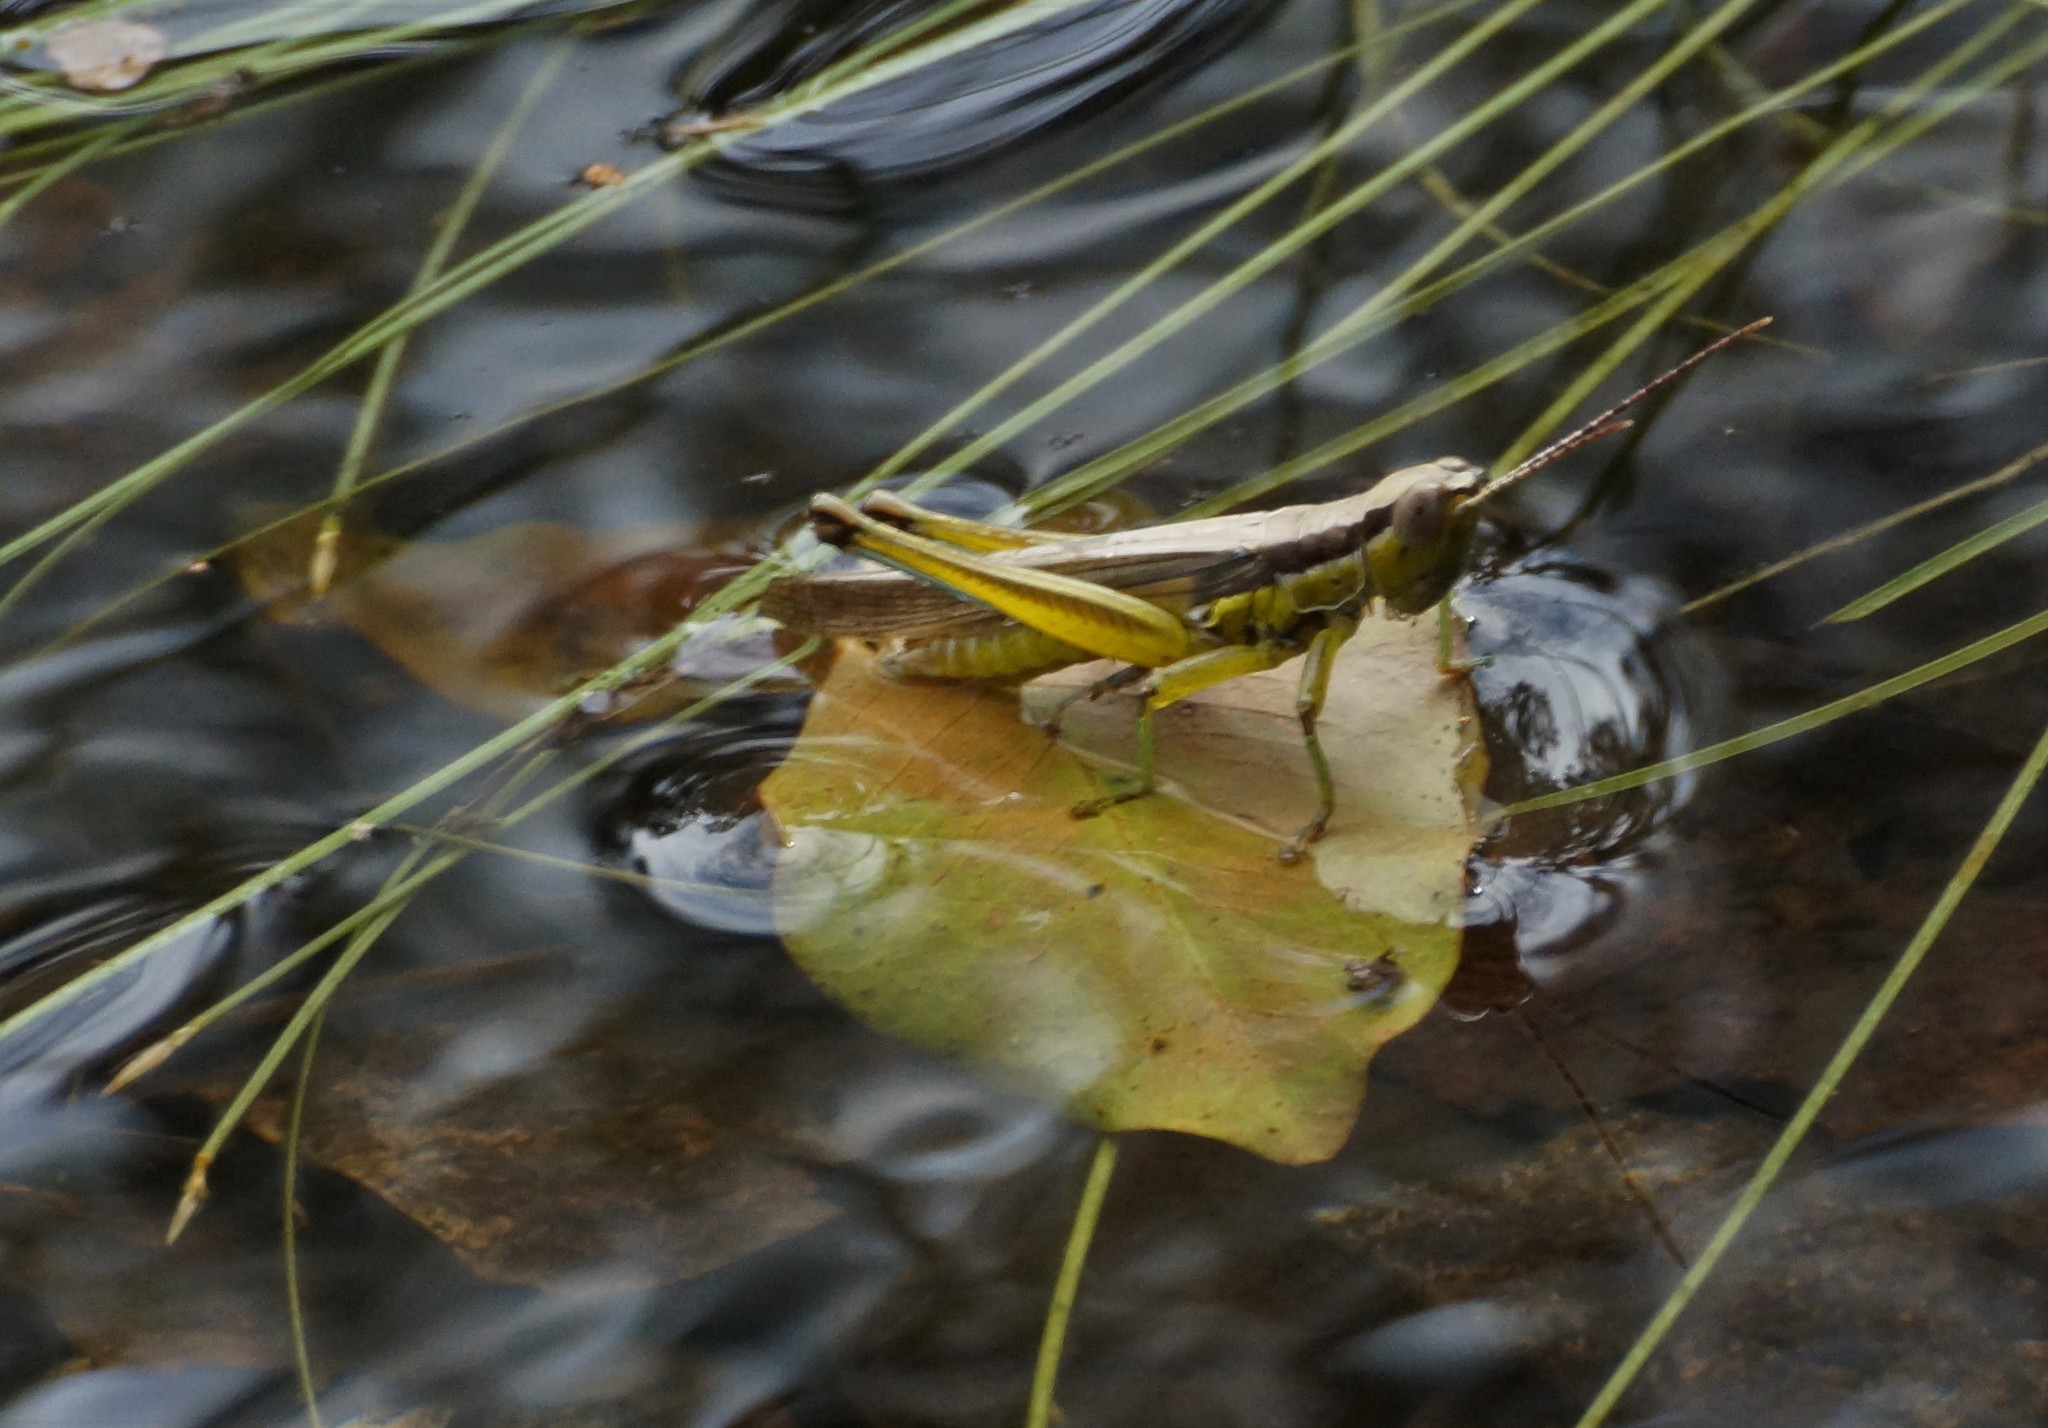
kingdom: Animalia
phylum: Arthropoda
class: Insecta
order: Orthoptera
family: Acrididae
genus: Bermius
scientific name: Bermius curvicercus
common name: Sorghum bermius
